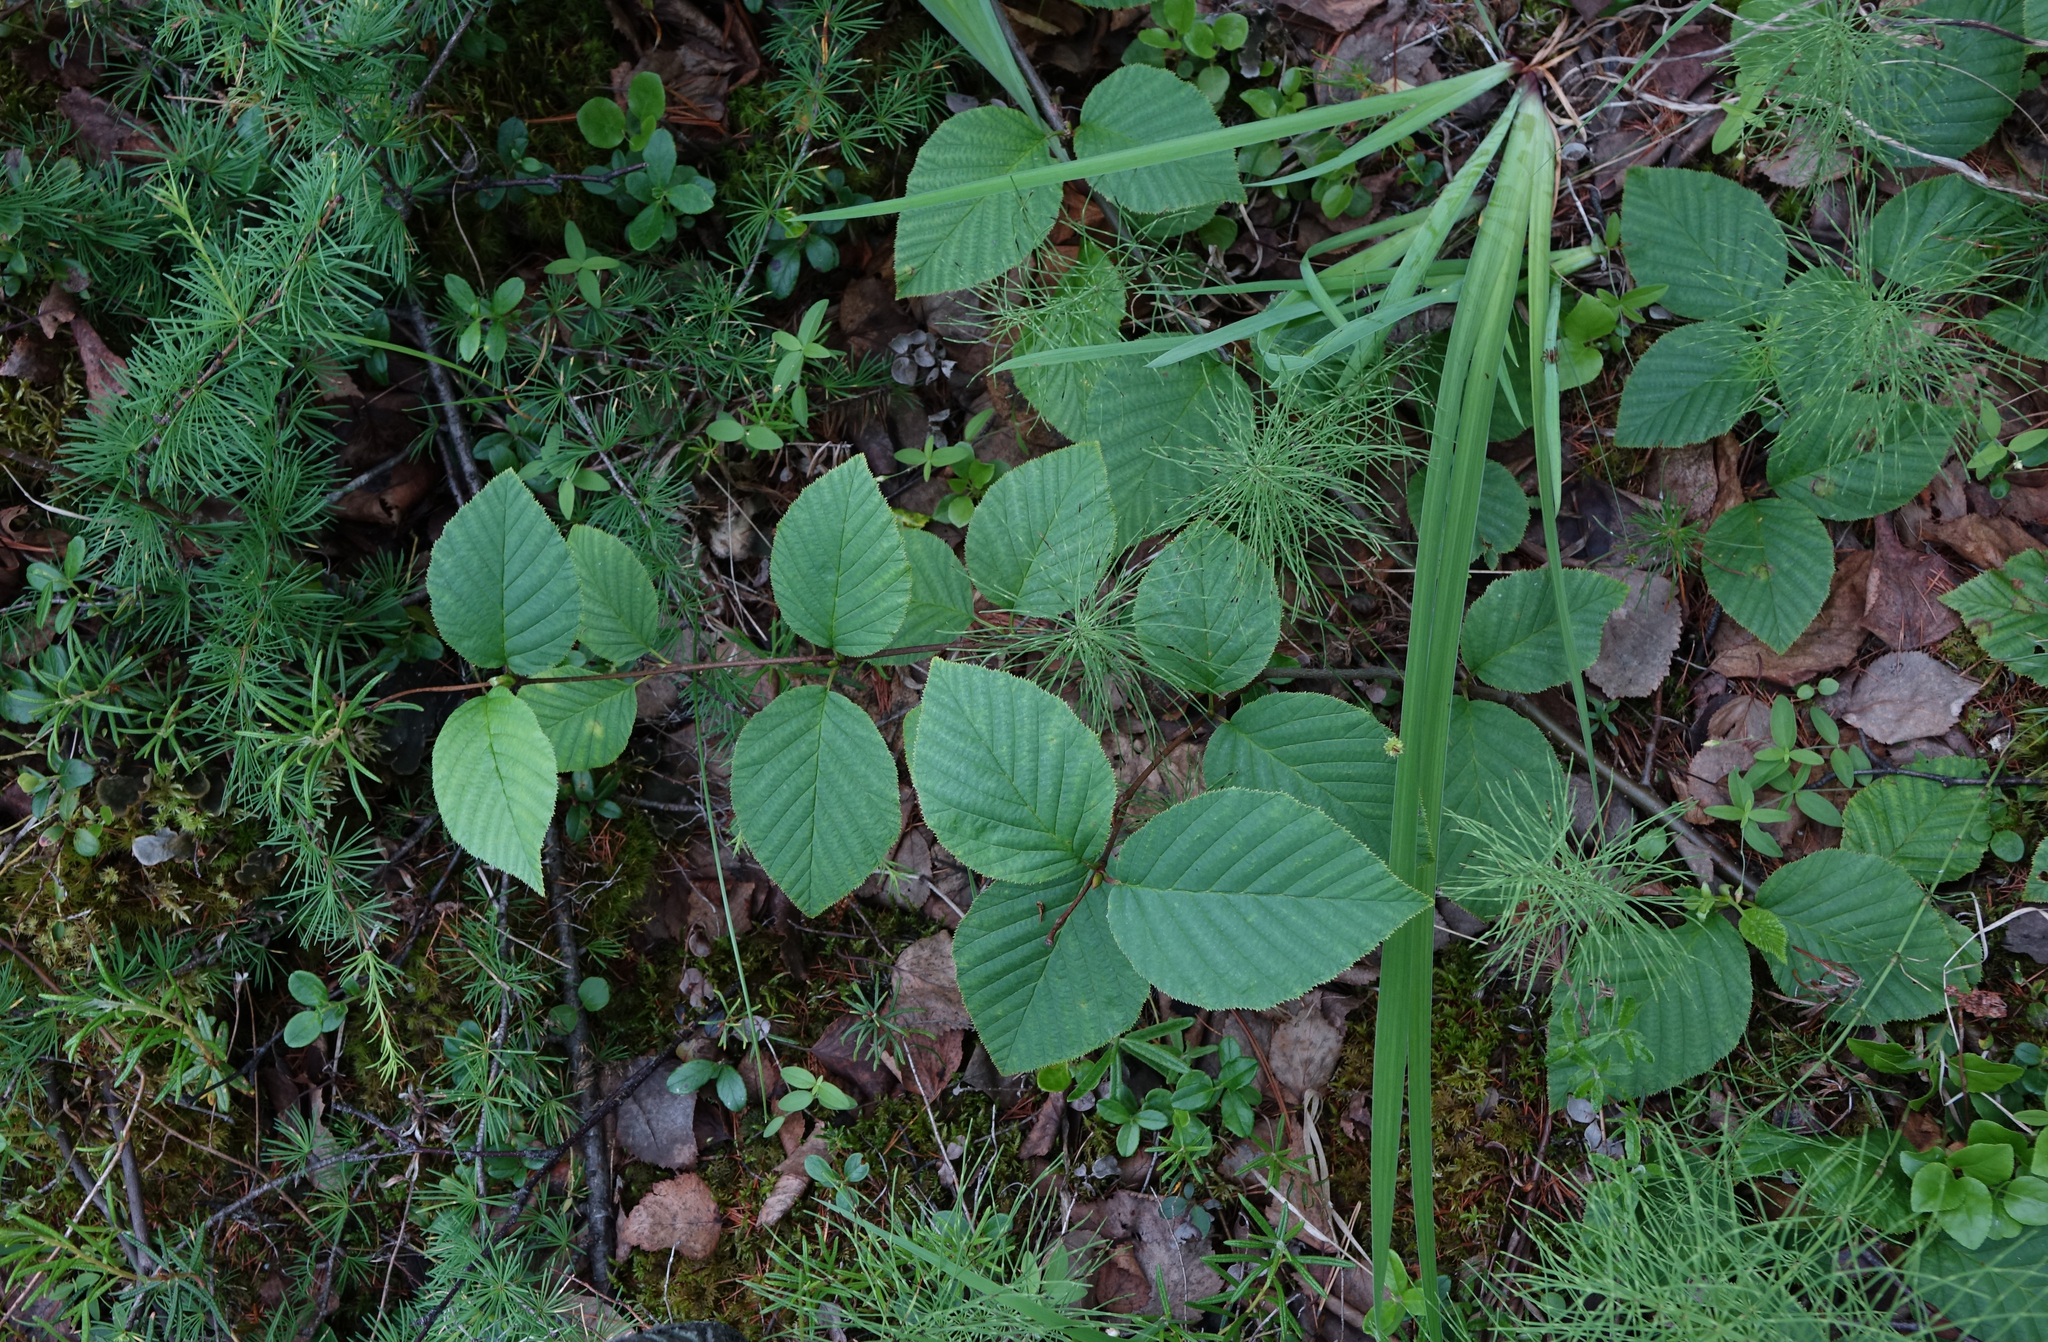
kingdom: Plantae
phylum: Tracheophyta
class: Magnoliopsida
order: Fagales
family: Betulaceae
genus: Alnus
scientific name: Alnus alnobetula
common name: Green alder
